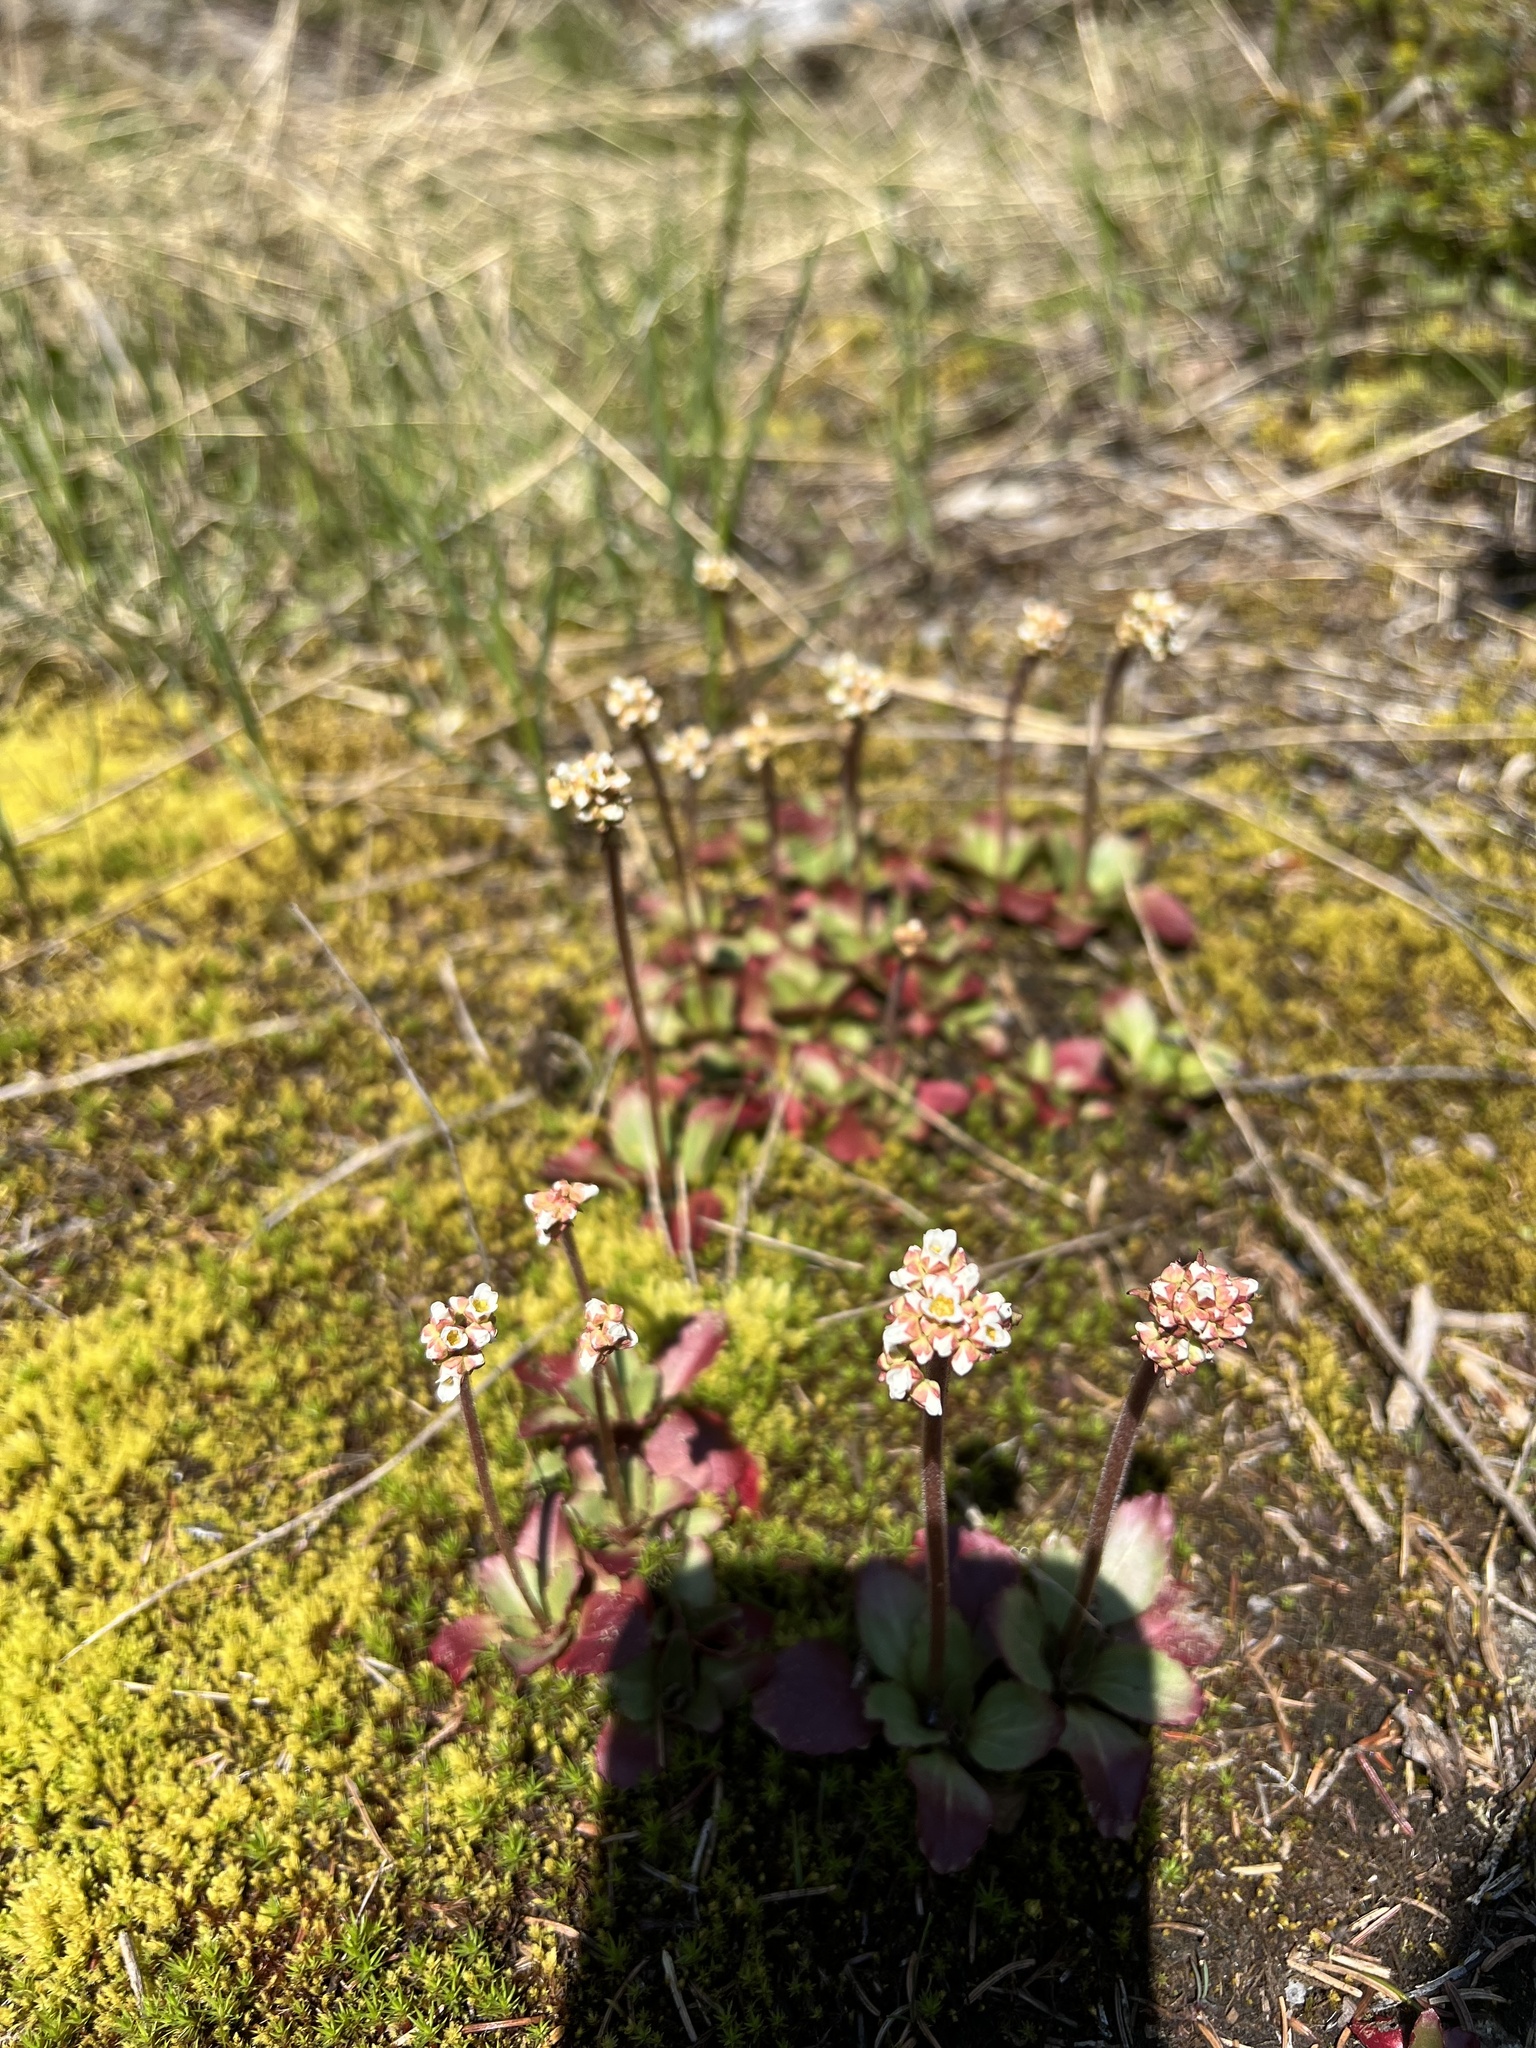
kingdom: Plantae
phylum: Tracheophyta
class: Magnoliopsida
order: Saxifragales
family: Saxifragaceae
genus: Micranthes
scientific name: Micranthes virginiensis
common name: Early saxifrage
